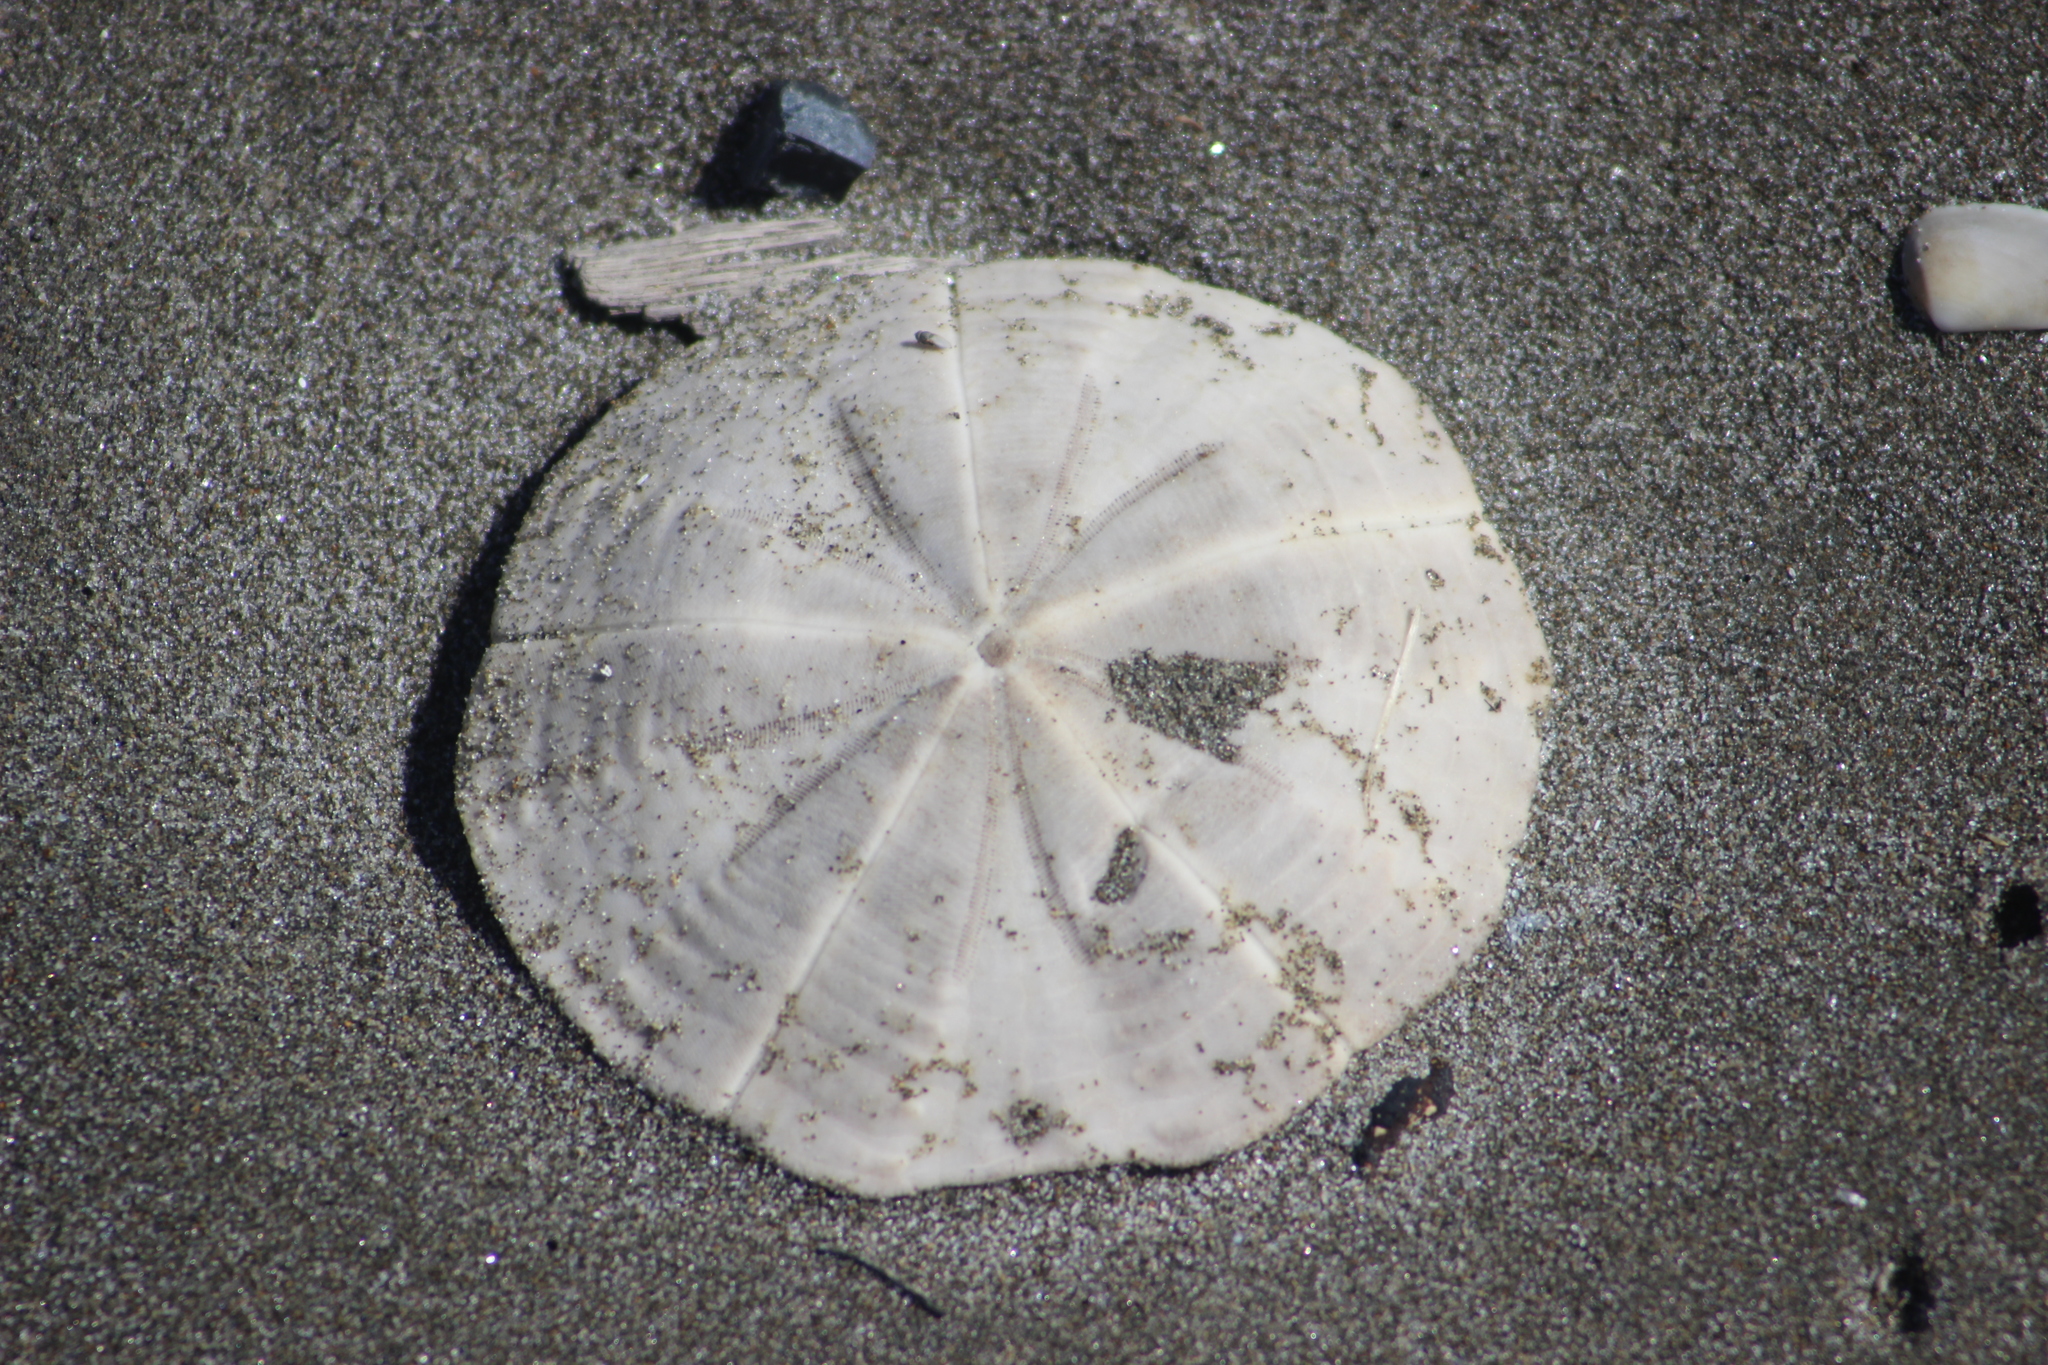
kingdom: Animalia
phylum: Echinodermata
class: Echinoidea
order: Clypeasteroida
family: Clypeasteridae
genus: Fellaster
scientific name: Fellaster zelandiae
